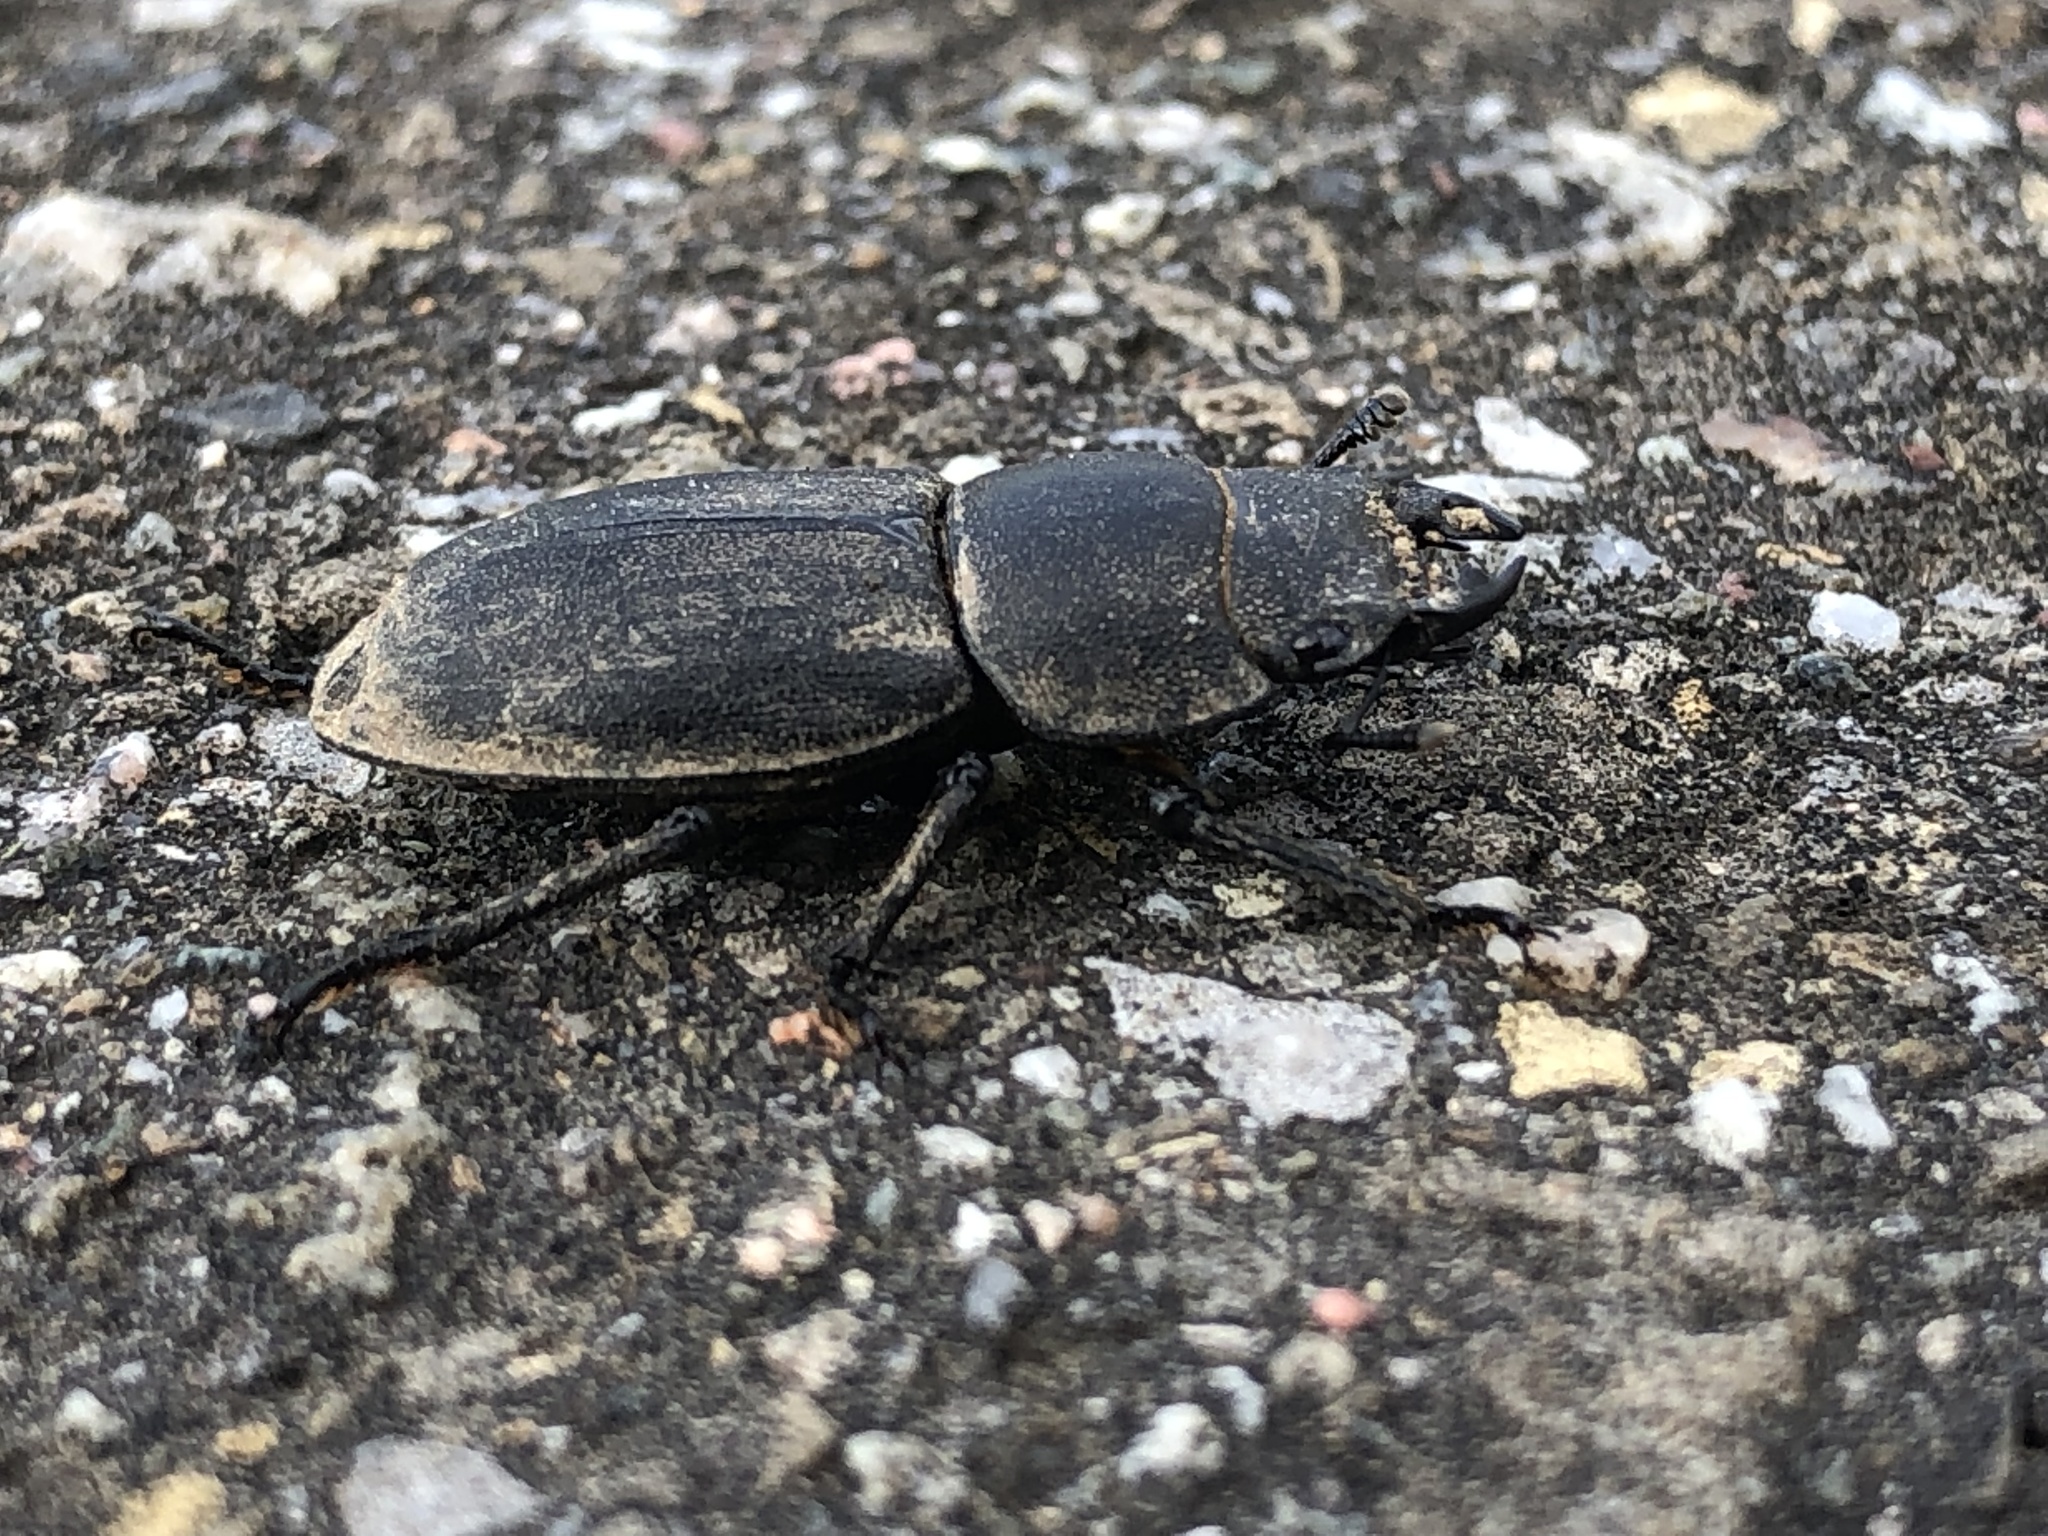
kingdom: Animalia
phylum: Arthropoda
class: Insecta
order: Coleoptera
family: Lucanidae
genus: Dorcus
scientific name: Dorcus parallelipipedus
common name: Lesser stag beetle
